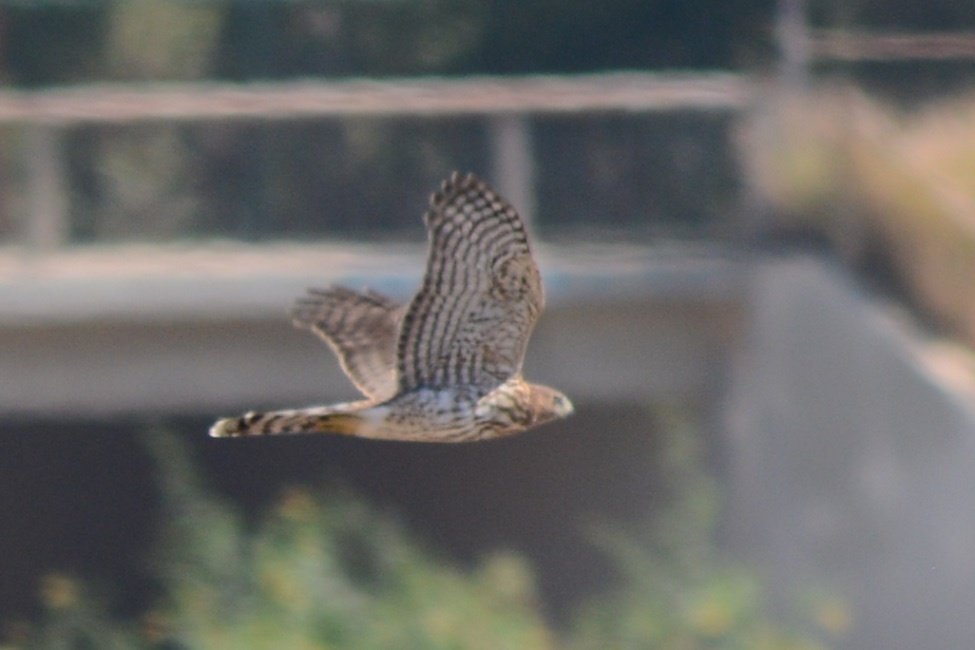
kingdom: Animalia
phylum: Chordata
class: Aves
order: Accipitriformes
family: Accipitridae
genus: Accipiter
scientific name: Accipiter cooperii
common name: Cooper's hawk
